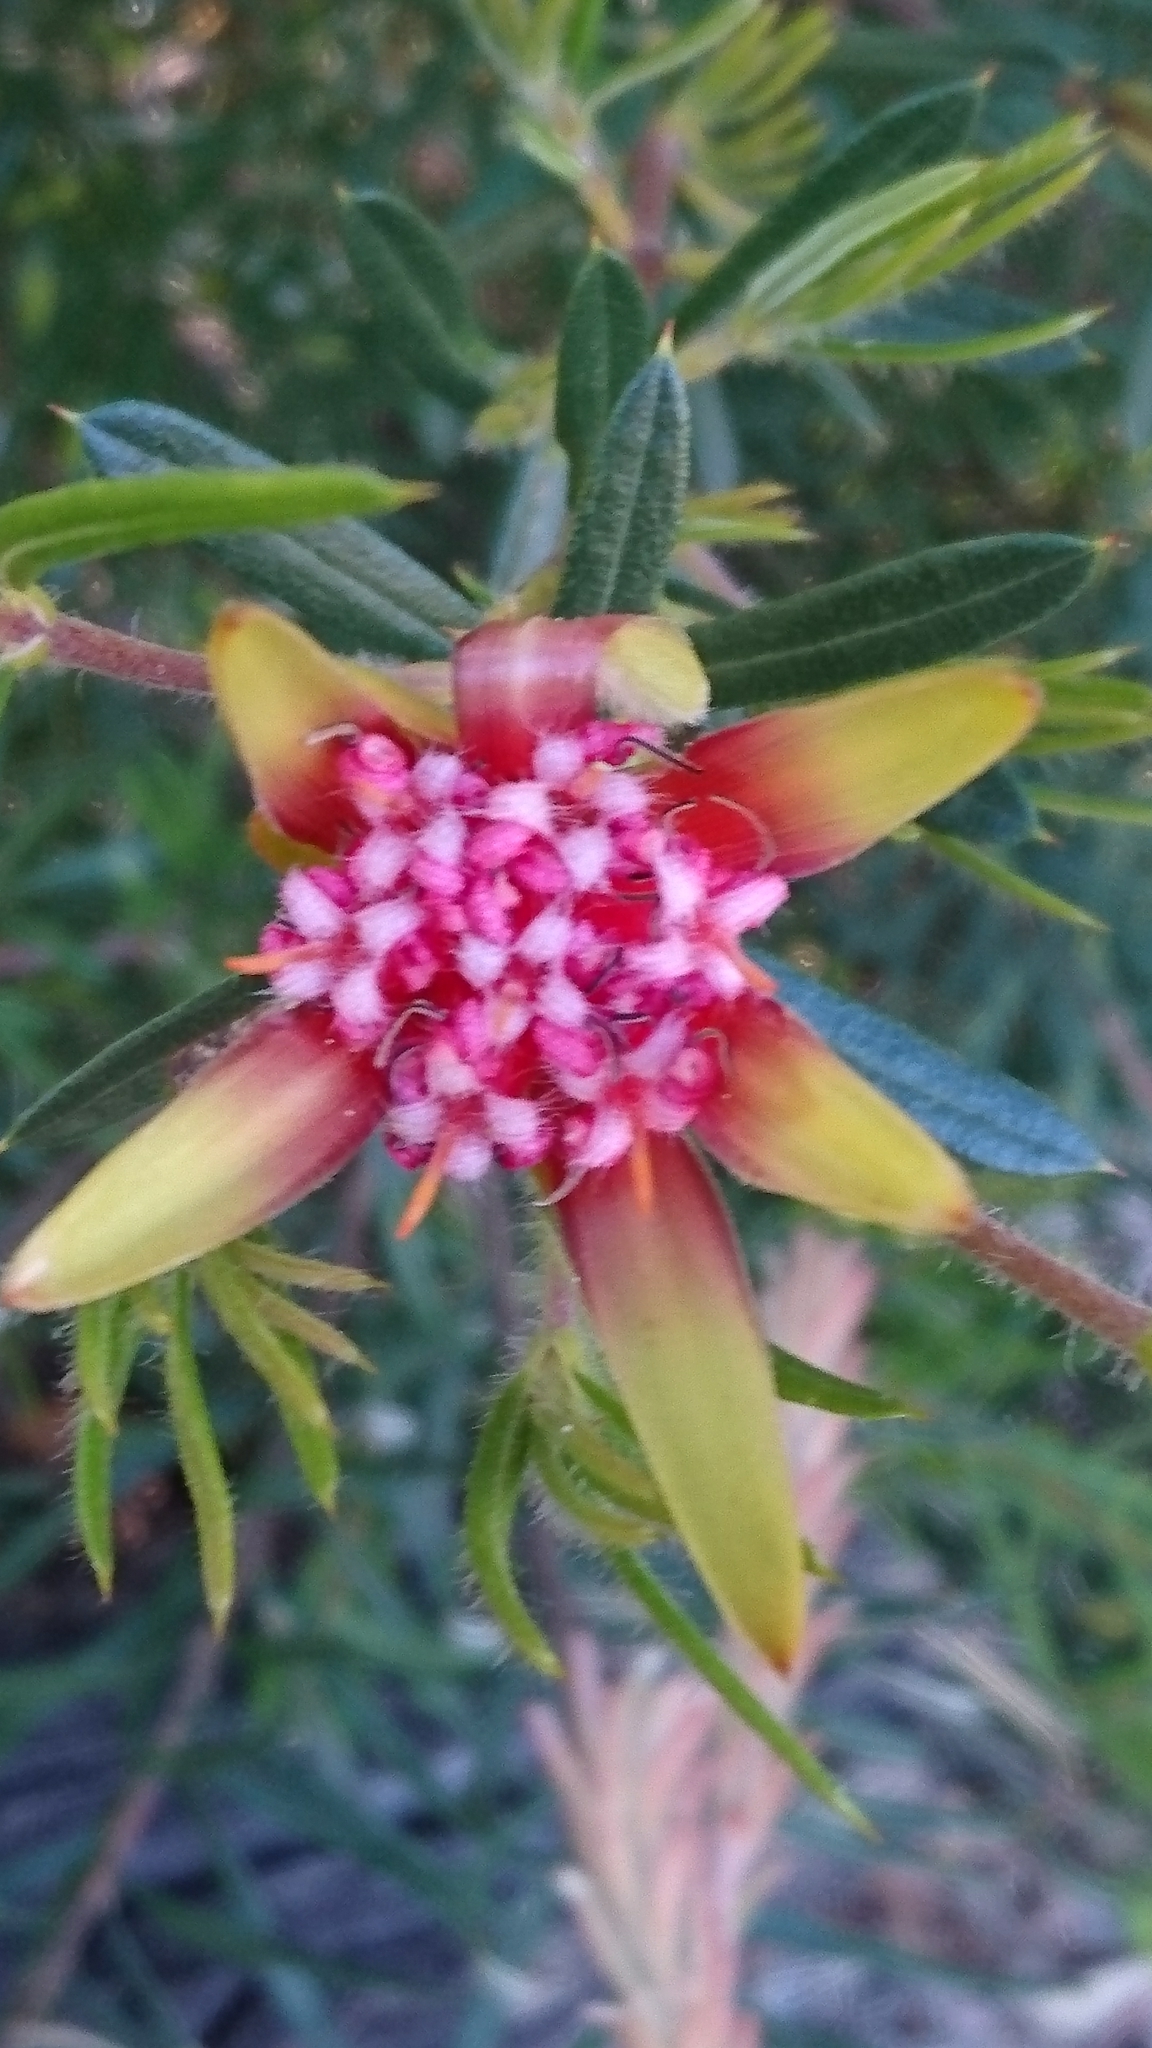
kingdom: Plantae
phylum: Tracheophyta
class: Magnoliopsida
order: Proteales
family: Proteaceae
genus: Lambertia
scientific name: Lambertia formosa
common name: Mountain-devil
